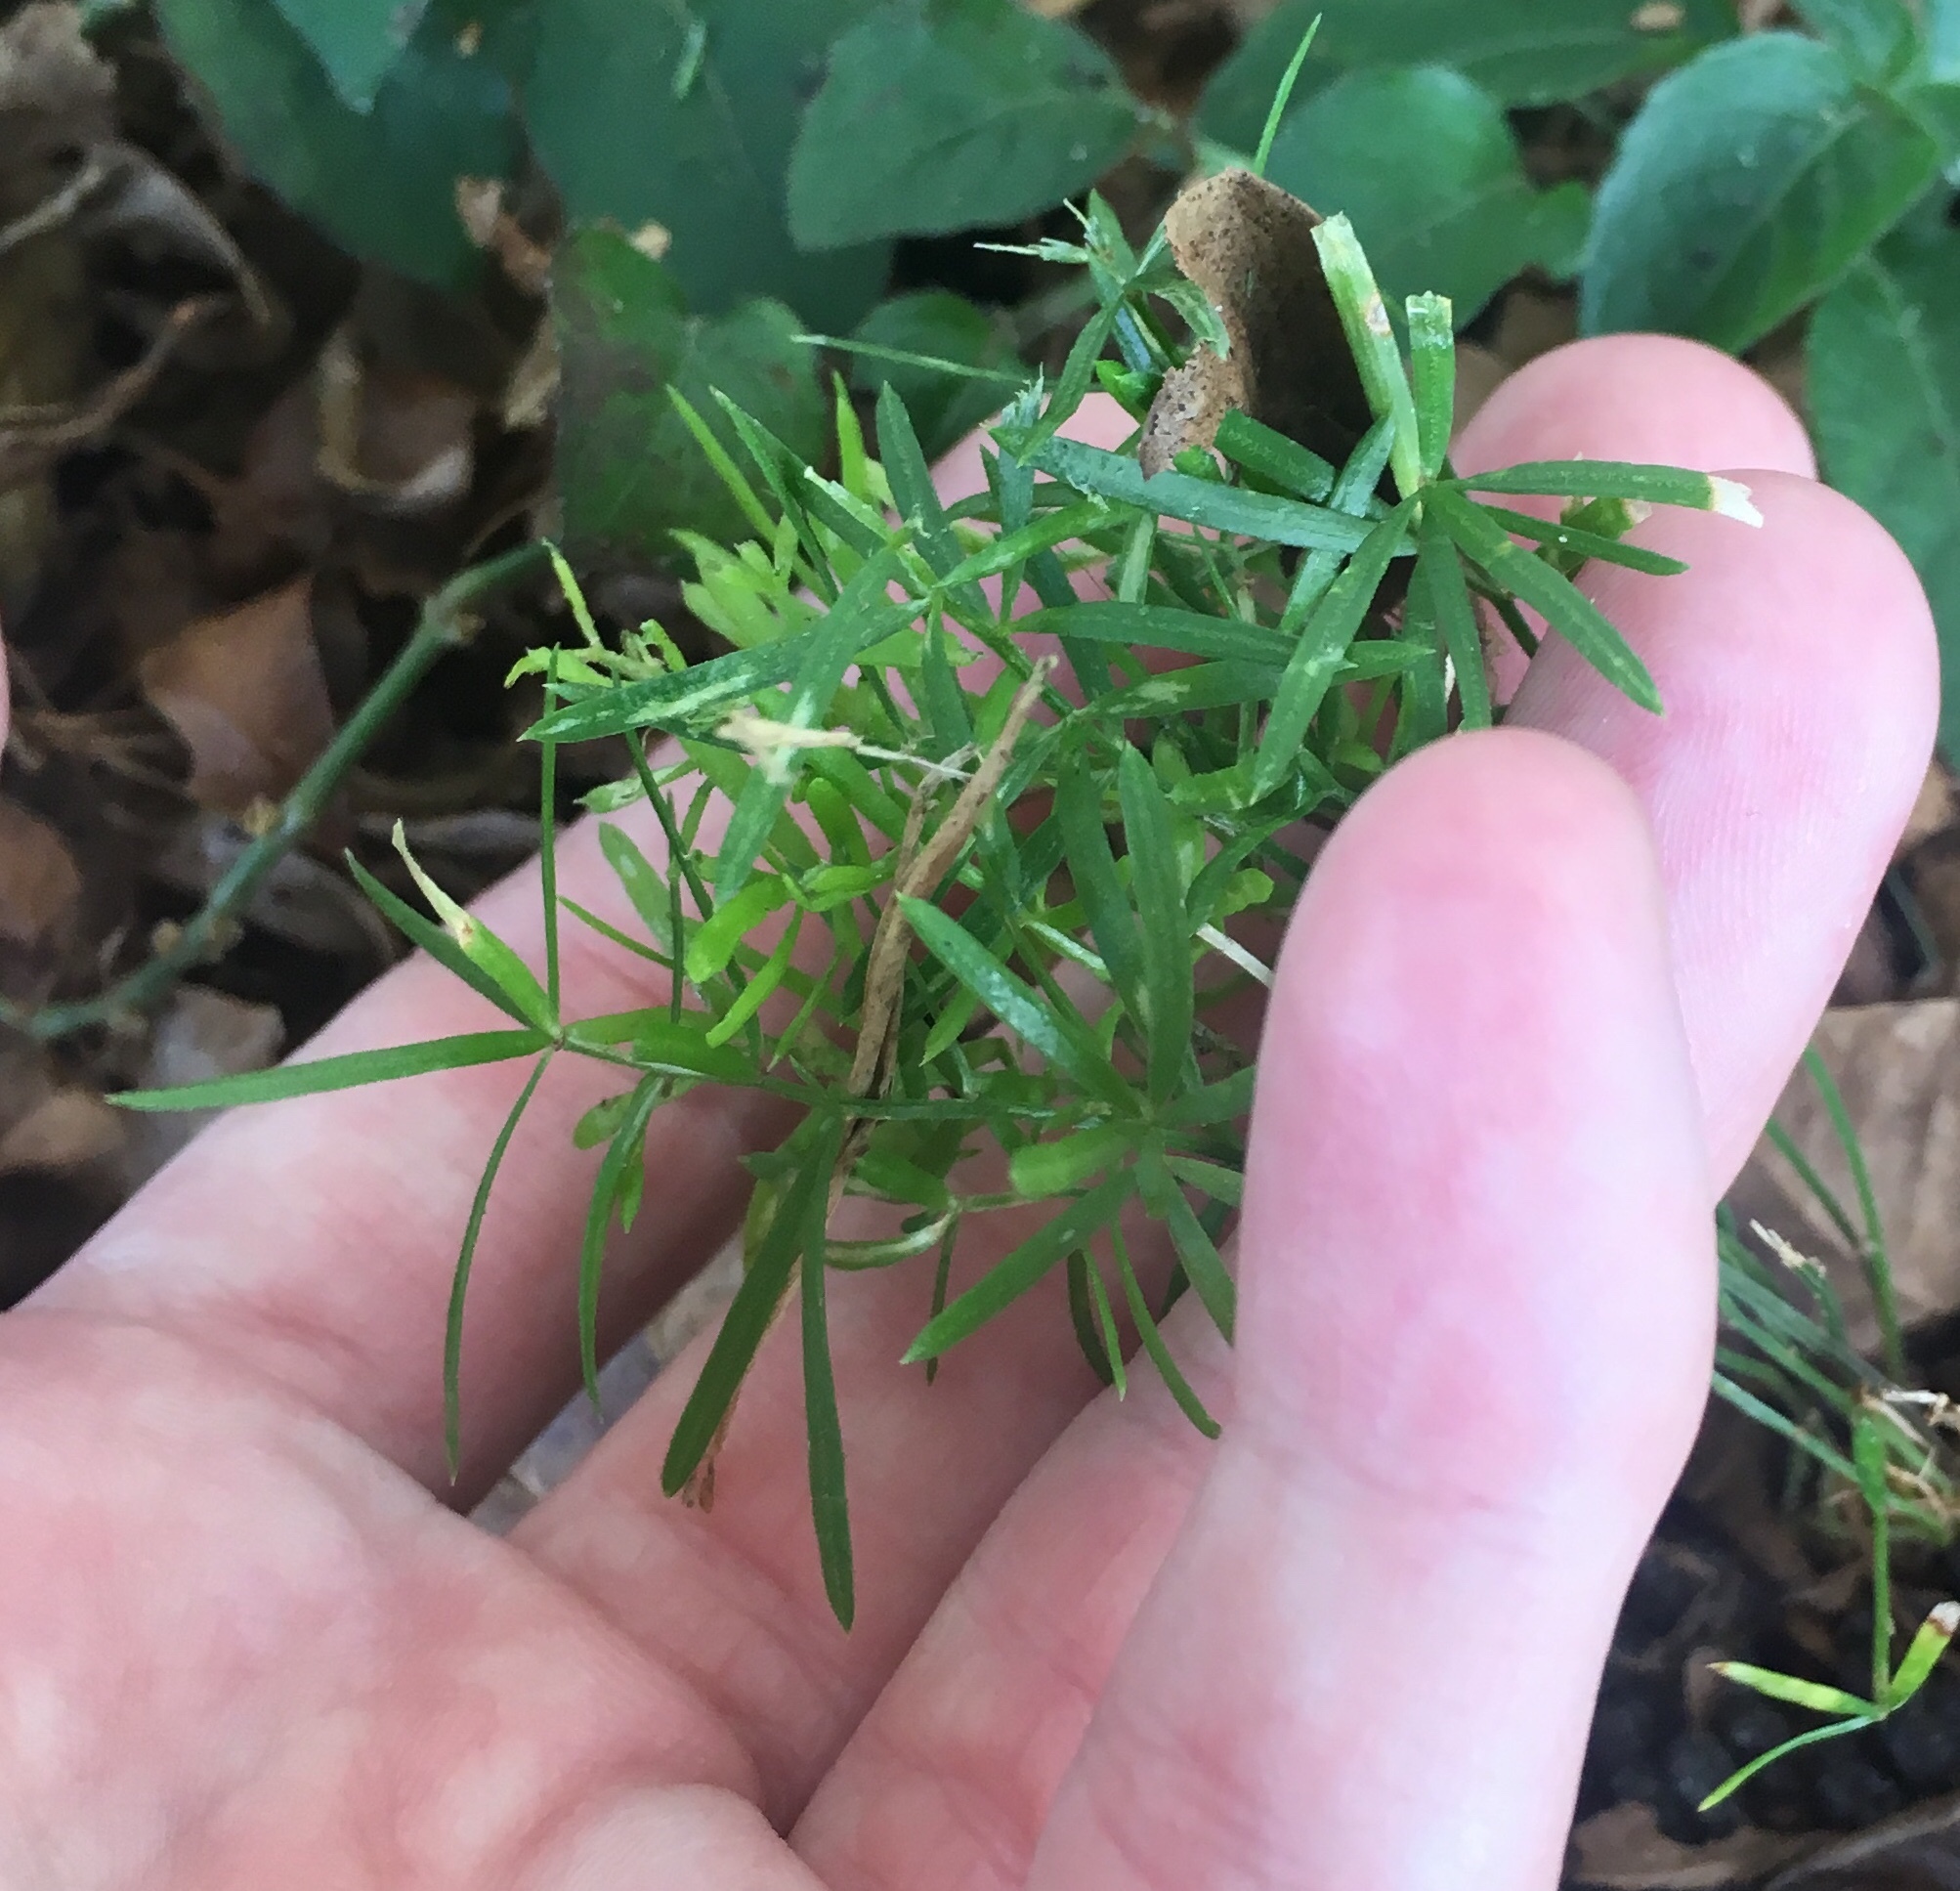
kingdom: Plantae
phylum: Tracheophyta
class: Liliopsida
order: Asparagales
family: Asparagaceae
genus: Asparagus
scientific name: Asparagus aethiopicus
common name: Sprenger's asparagus fern
